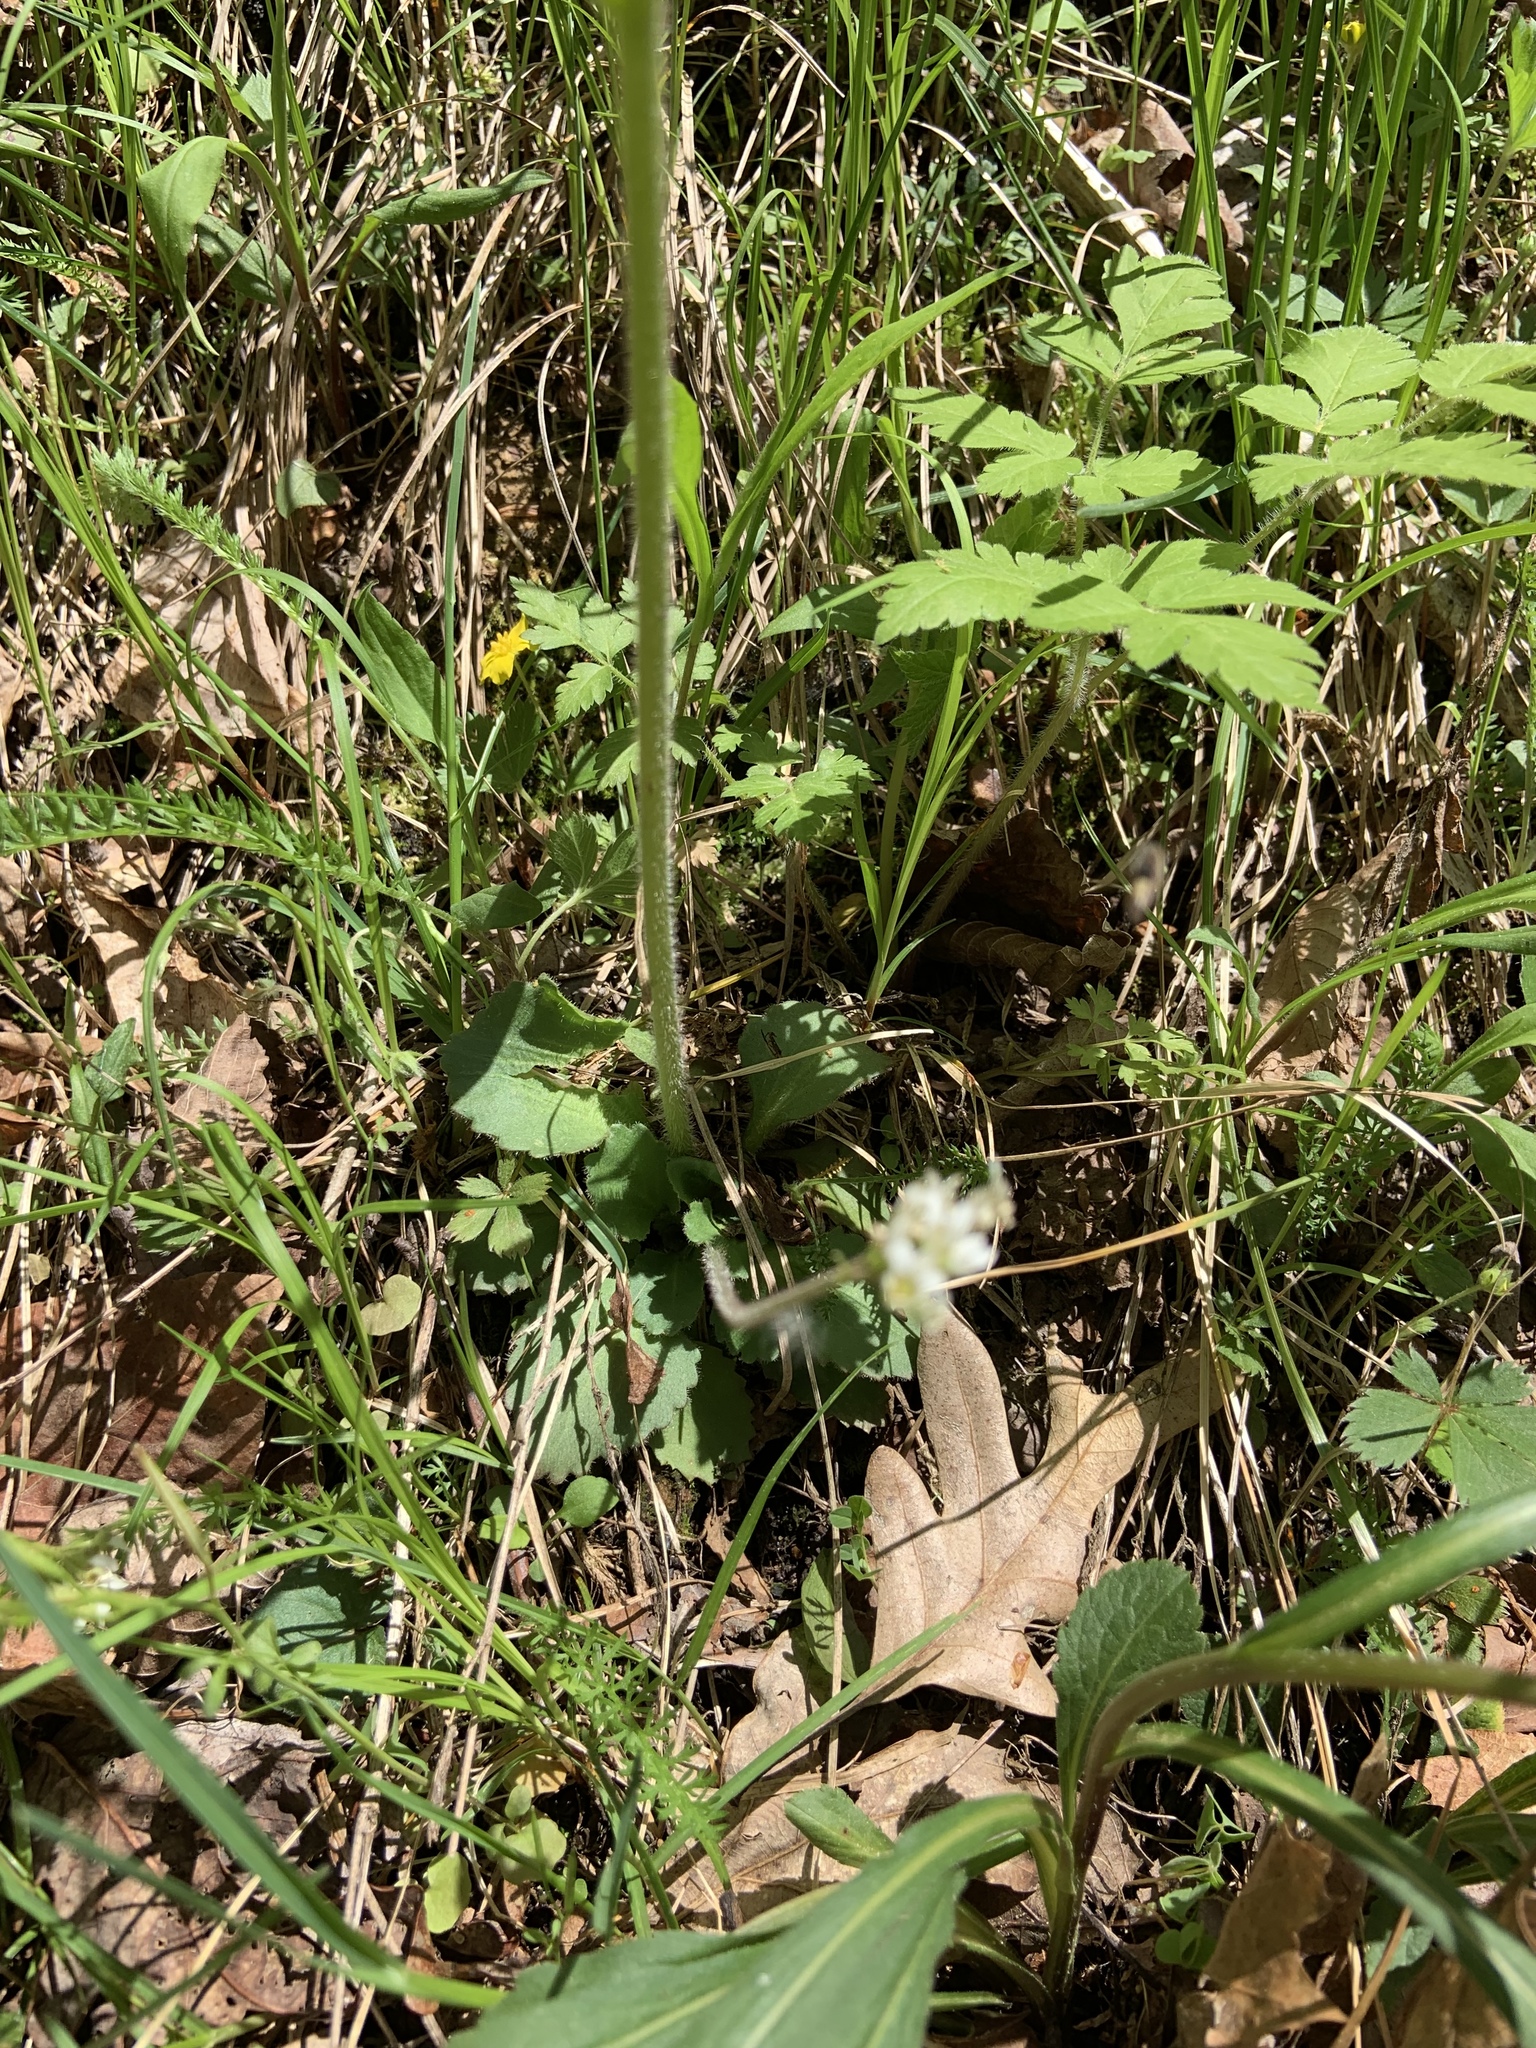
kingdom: Plantae
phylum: Tracheophyta
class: Magnoliopsida
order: Saxifragales
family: Saxifragaceae
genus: Micranthes
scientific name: Micranthes virginiensis
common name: Early saxifrage
